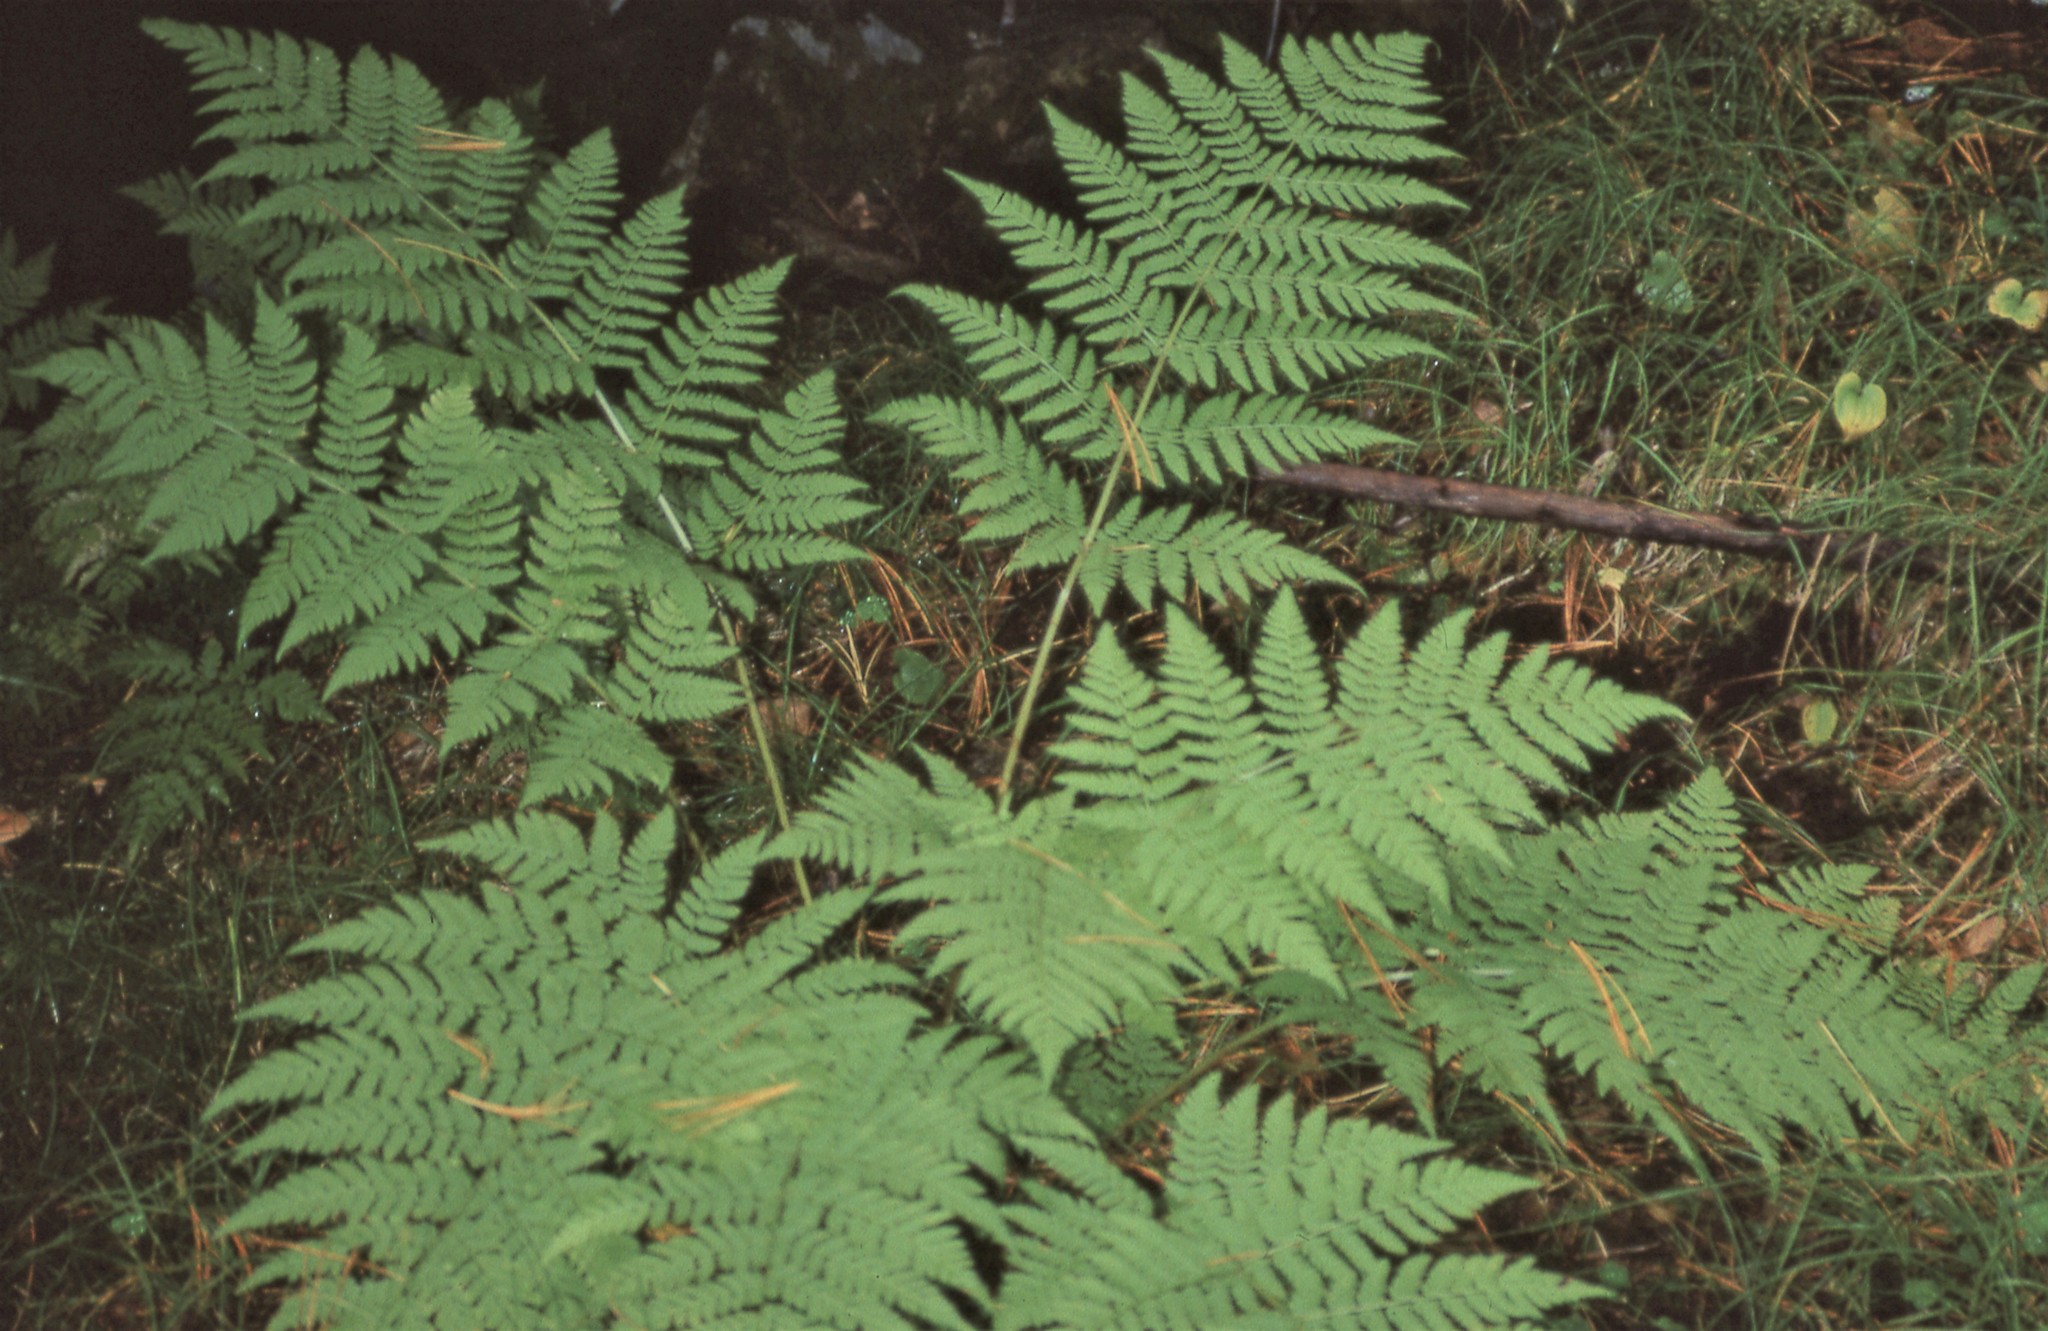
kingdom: Plantae
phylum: Tracheophyta
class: Polypodiopsida
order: Polypodiales
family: Dryopteridaceae
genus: Dryopteris
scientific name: Dryopteris expansa
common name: Northern buckler fern
